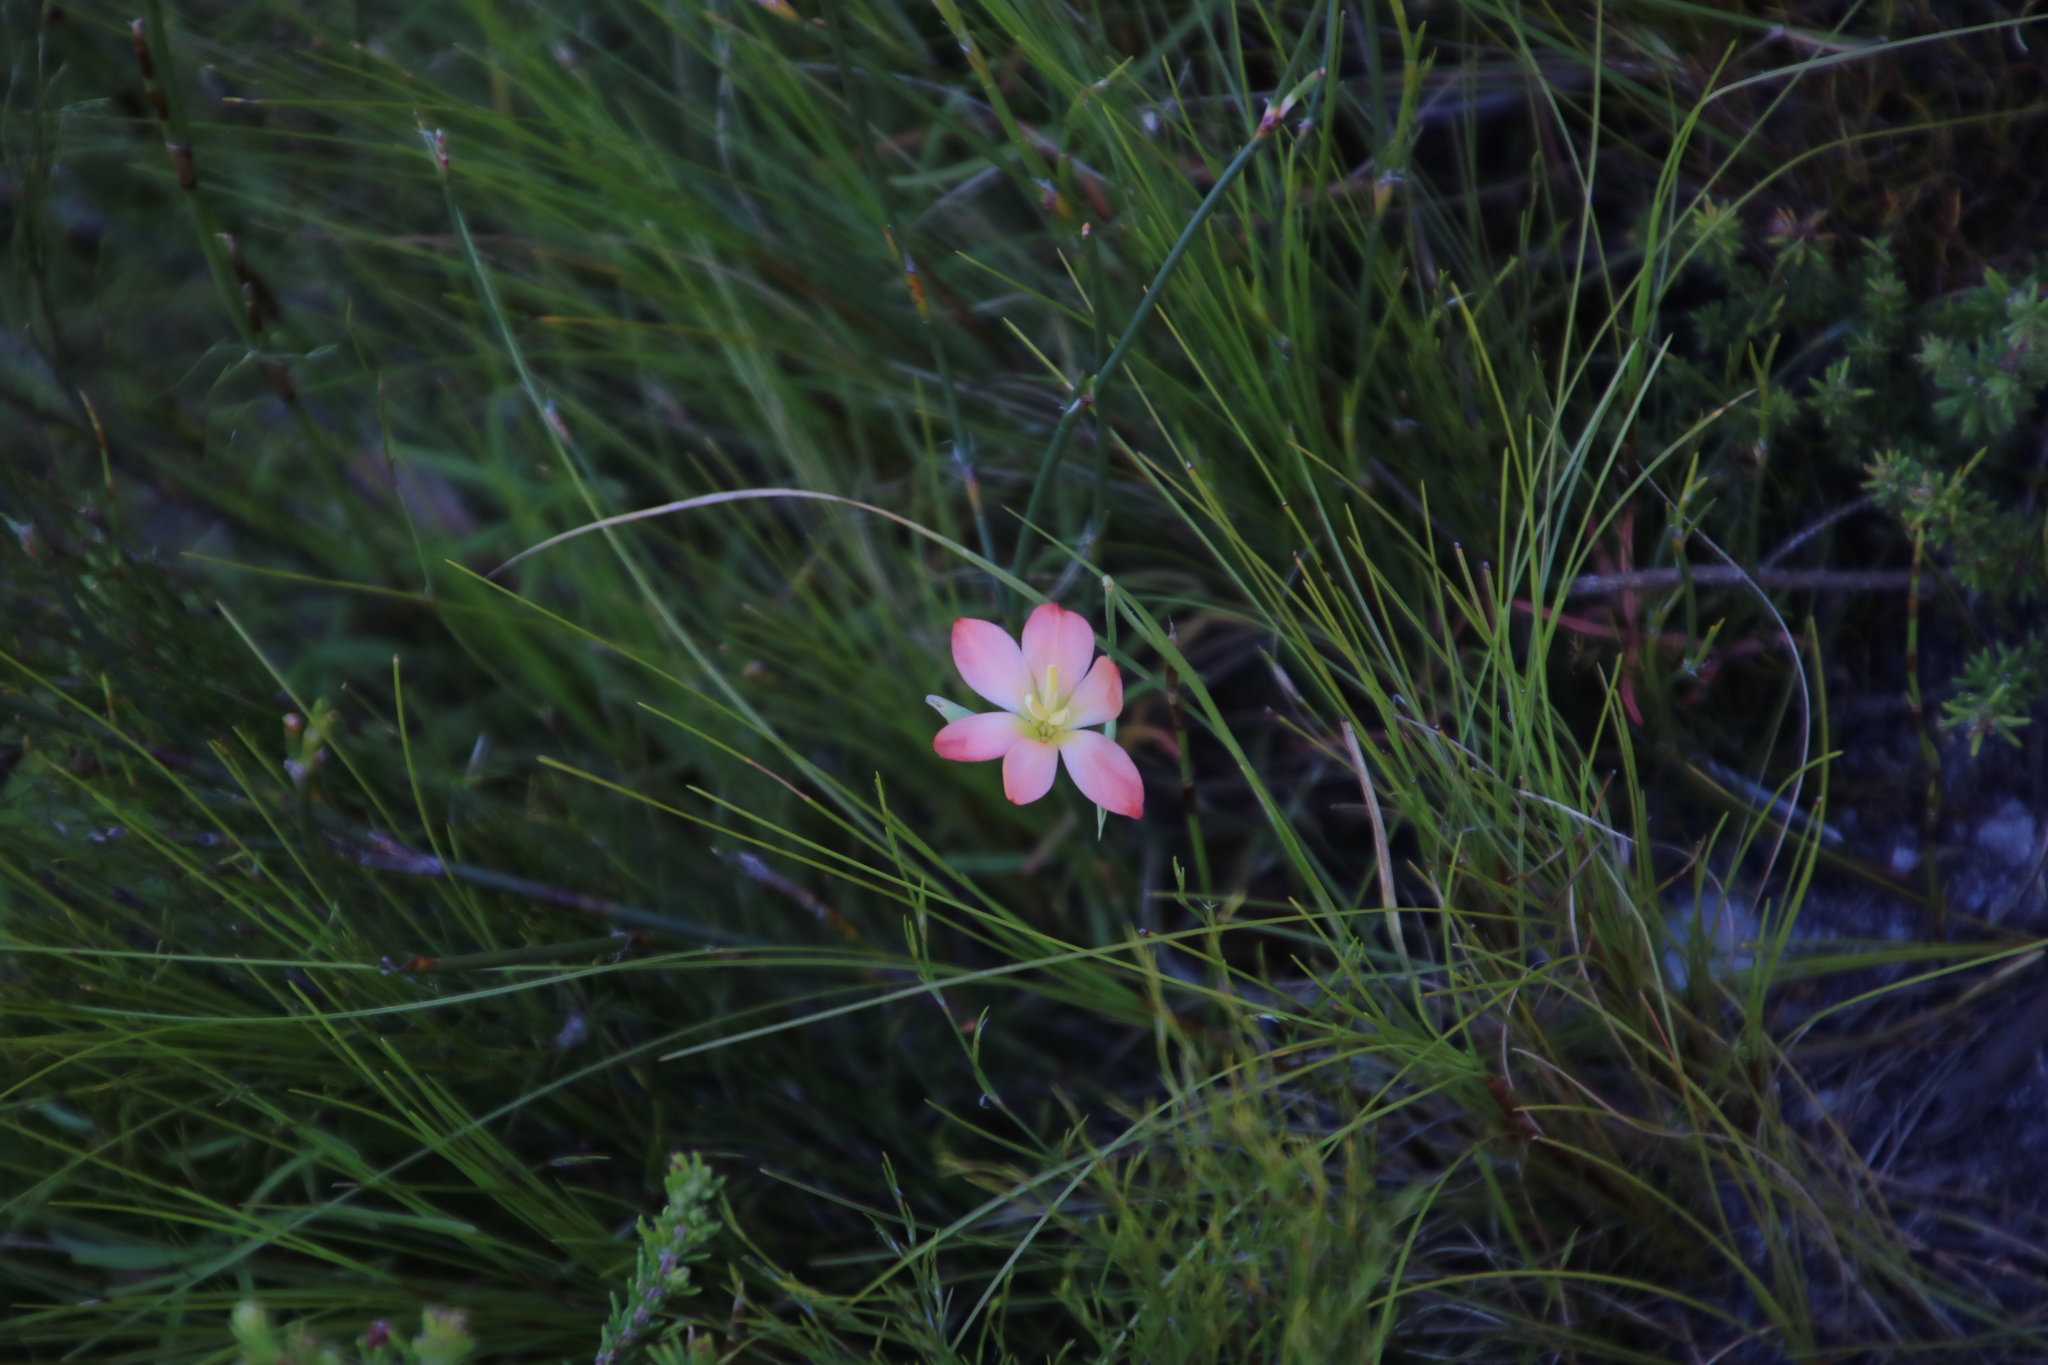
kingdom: Plantae
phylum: Tracheophyta
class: Liliopsida
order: Asparagales
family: Iridaceae
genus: Gladiolus
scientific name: Gladiolus brevitubus
